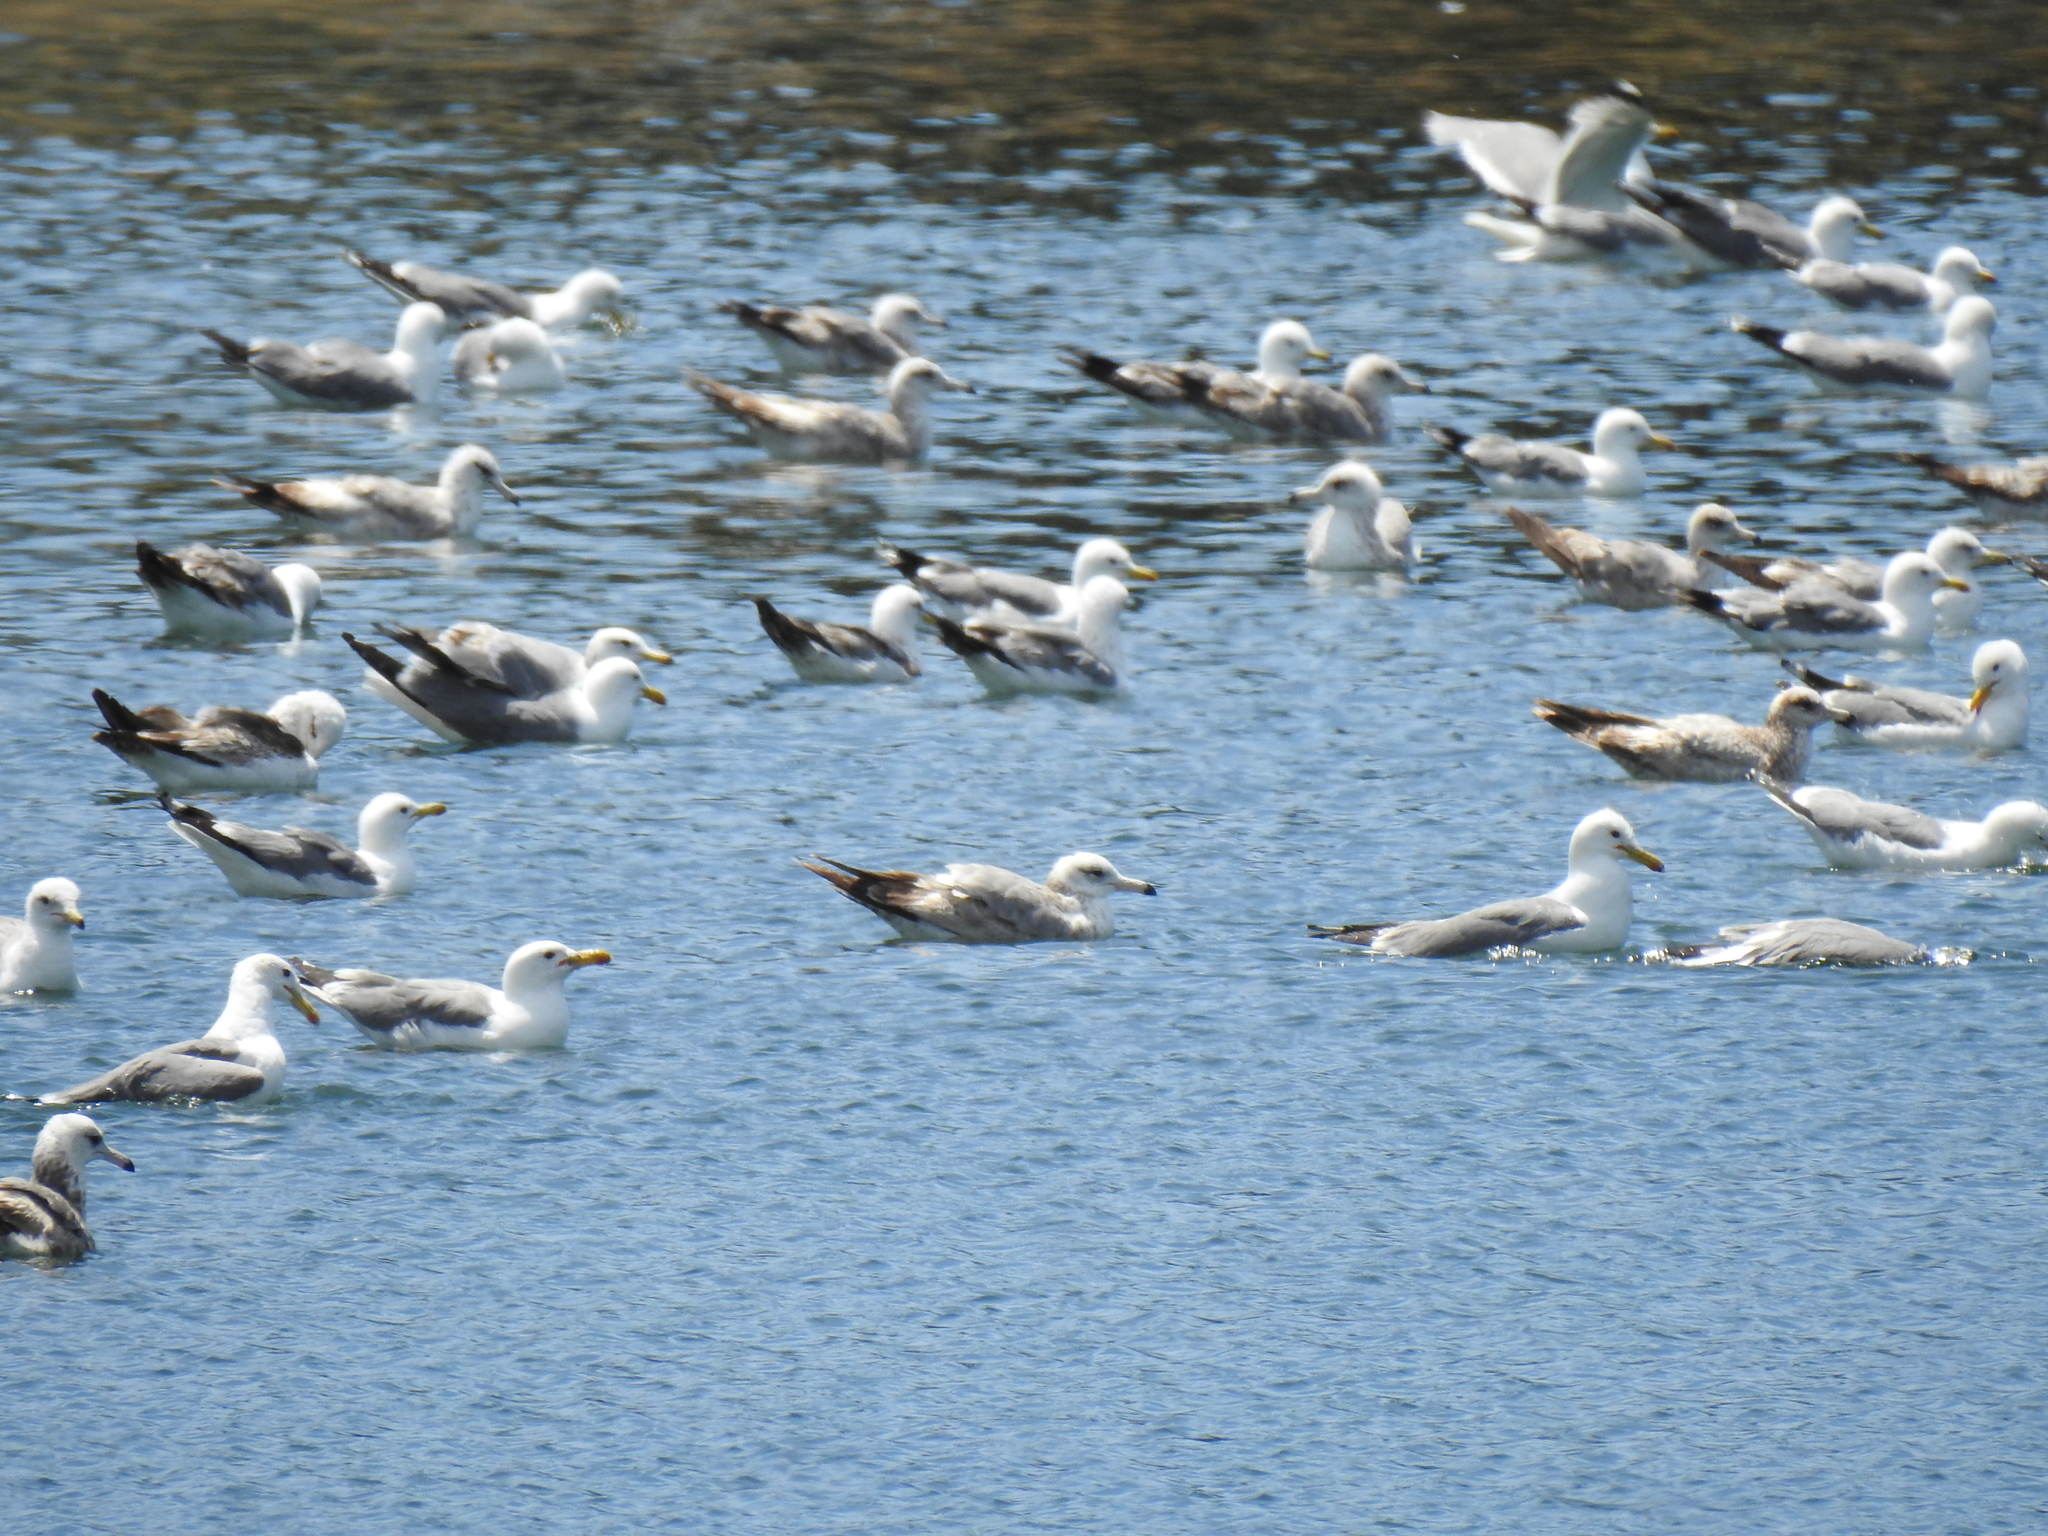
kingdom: Animalia
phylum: Chordata
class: Aves
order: Charadriiformes
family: Laridae
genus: Larus
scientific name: Larus californicus
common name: California gull
